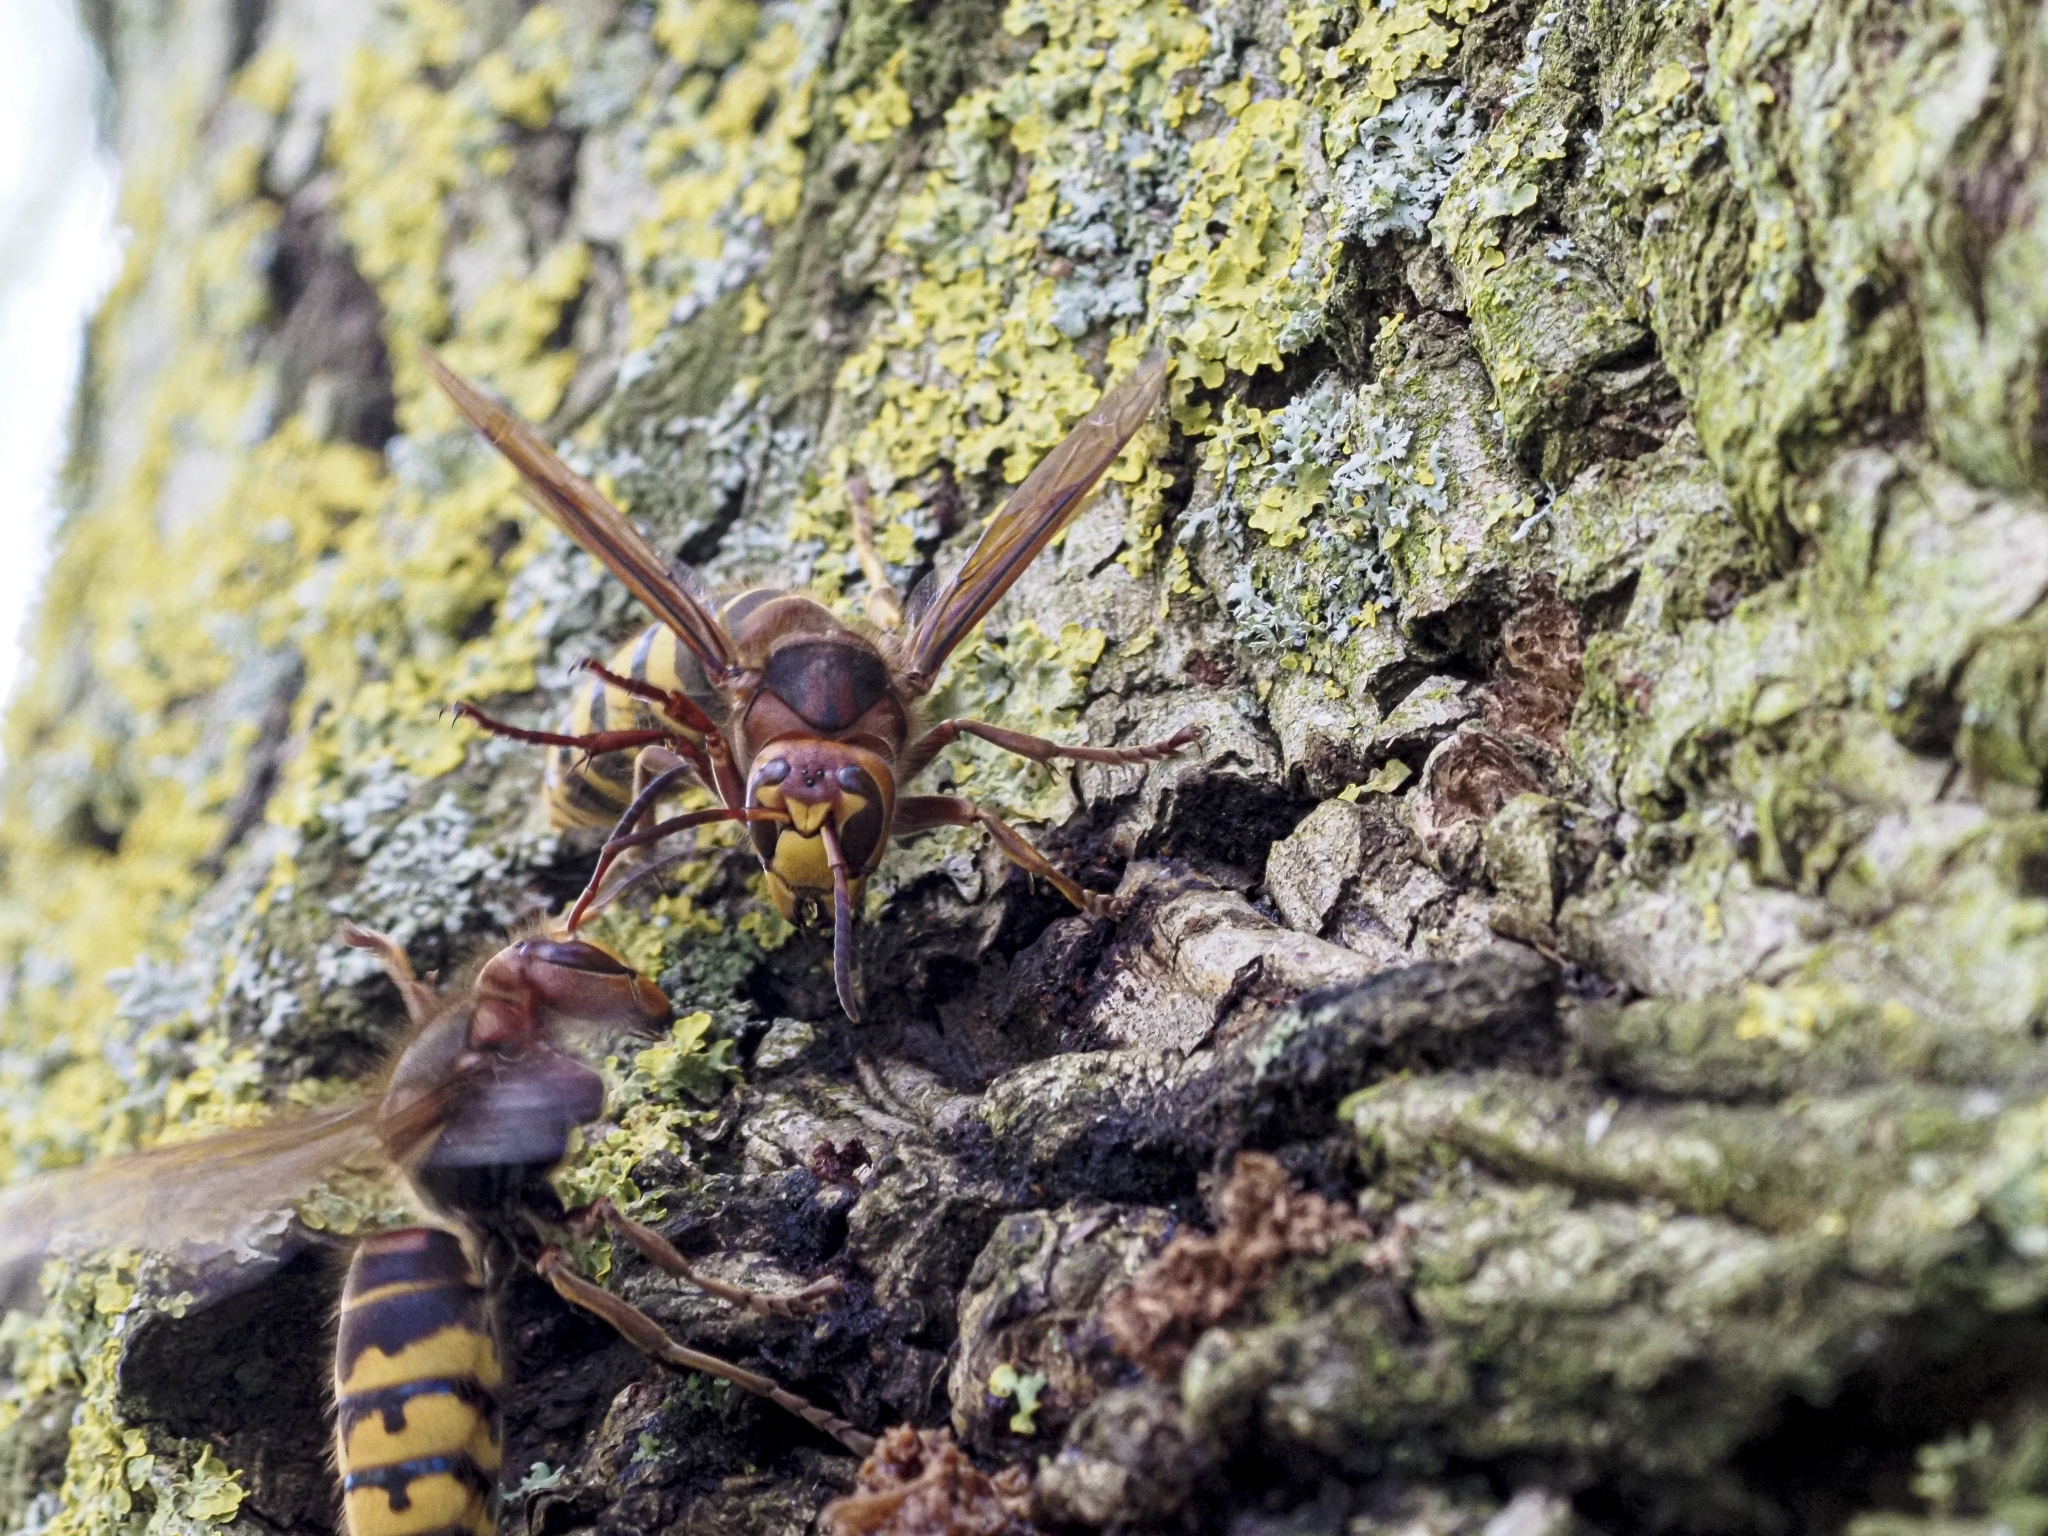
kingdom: Animalia
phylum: Arthropoda
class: Insecta
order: Hymenoptera
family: Vespidae
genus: Vespa
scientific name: Vespa crabro
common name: Hornet
